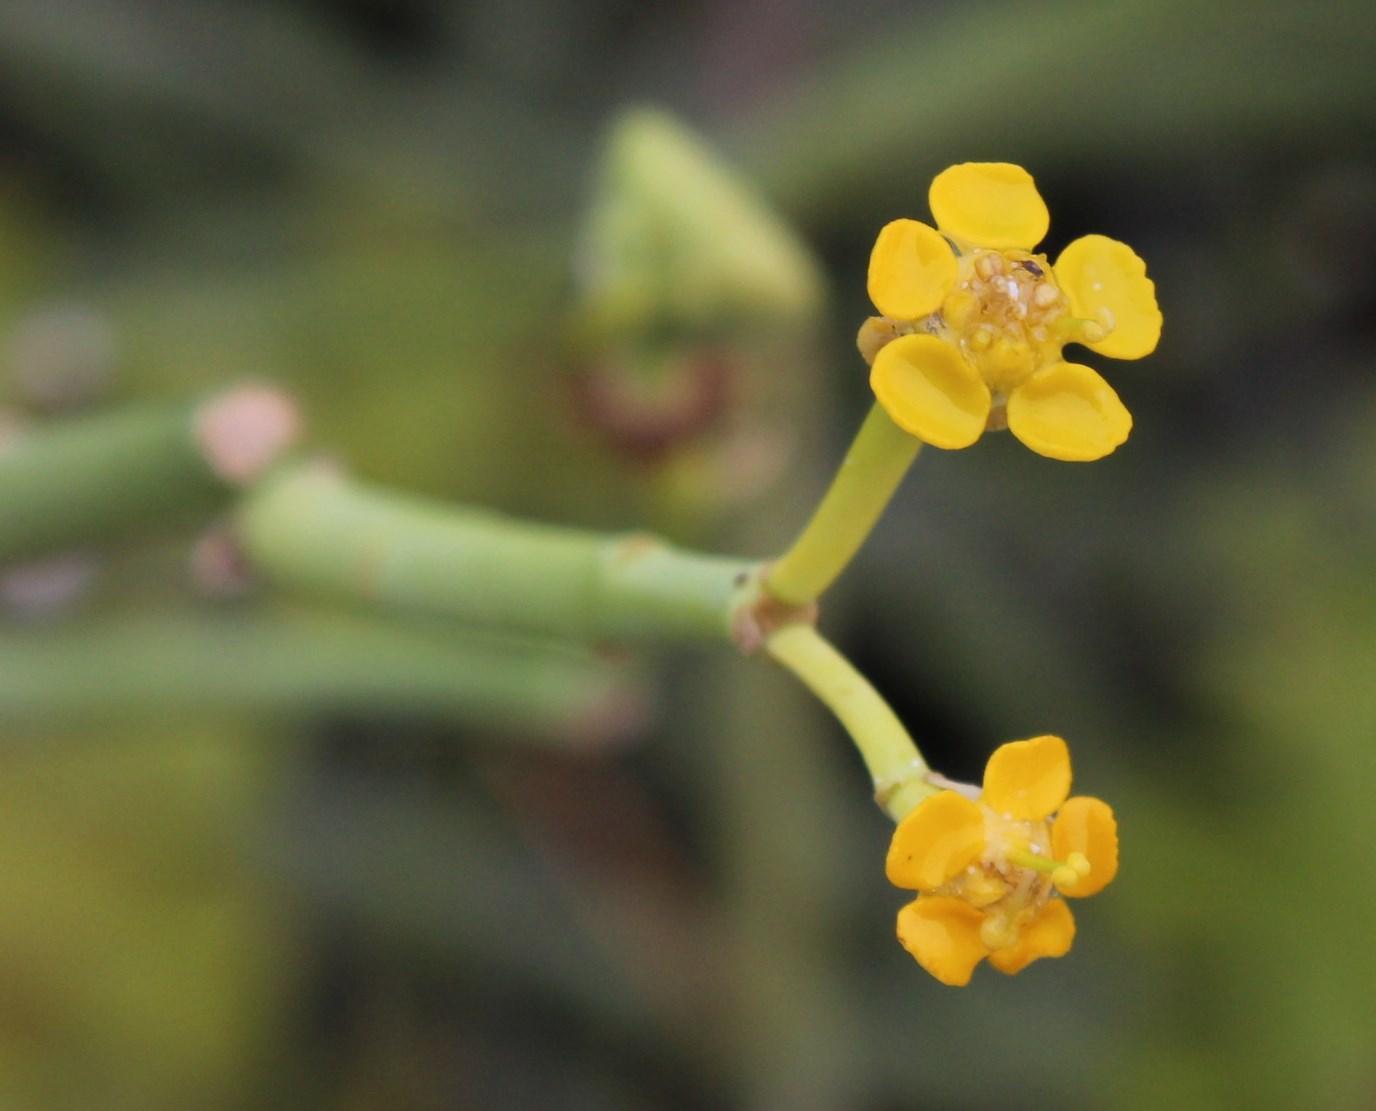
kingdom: Plantae
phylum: Tracheophyta
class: Magnoliopsida
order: Malpighiales
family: Euphorbiaceae
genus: Euphorbia
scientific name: Euphorbia mauritanica
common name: Jackal's-food
